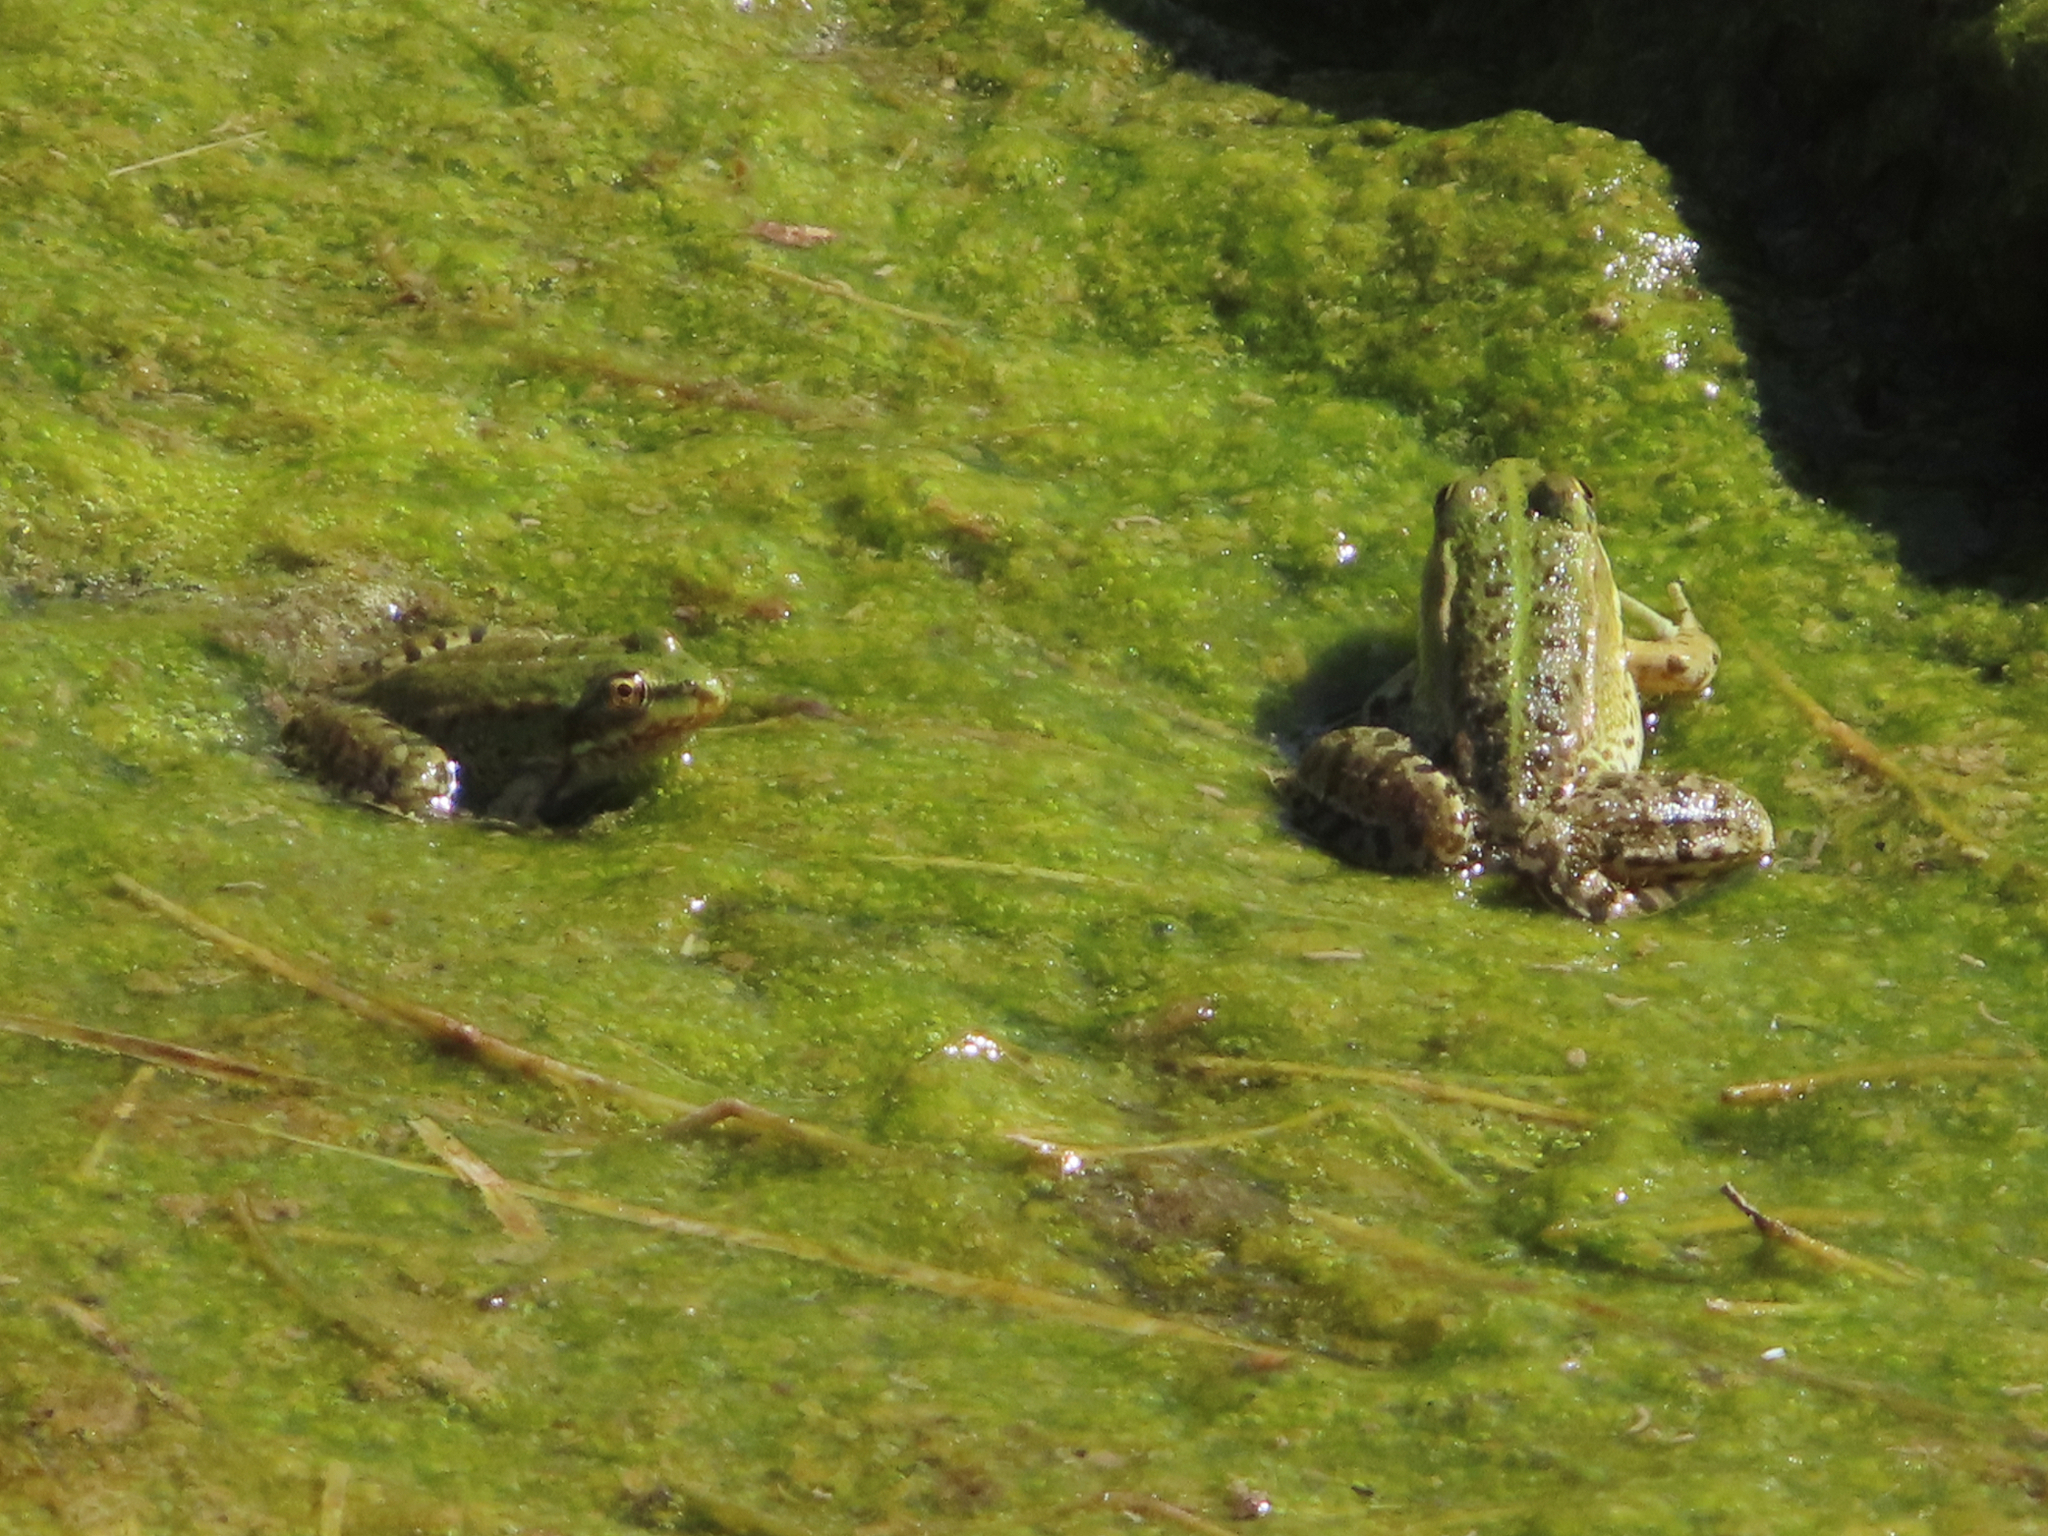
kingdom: Animalia
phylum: Chordata
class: Amphibia
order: Anura
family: Ranidae
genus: Pelophylax
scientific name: Pelophylax ridibundus
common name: Marsh frog
